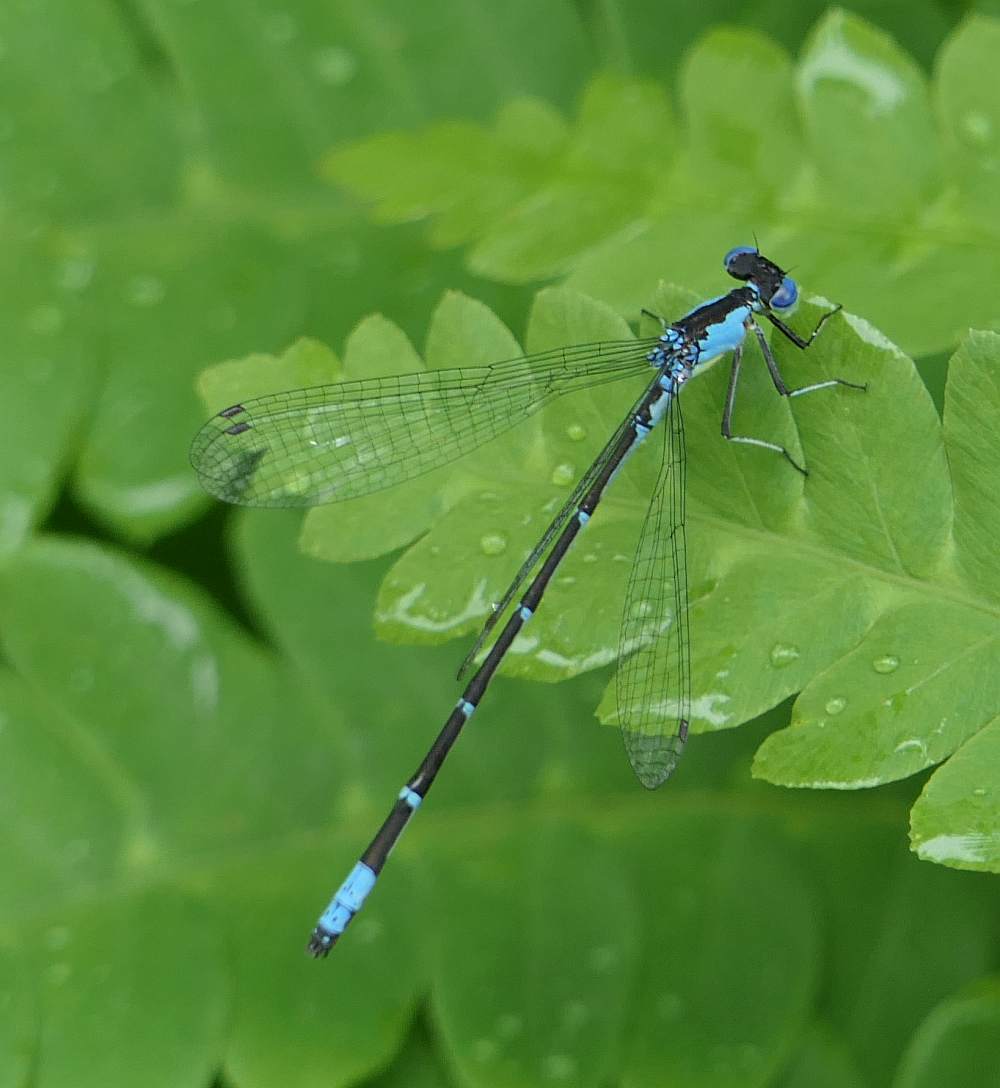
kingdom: Animalia
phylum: Arthropoda
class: Insecta
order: Odonata
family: Coenagrionidae
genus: Chromagrion
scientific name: Chromagrion conditum
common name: Aurora damsel
